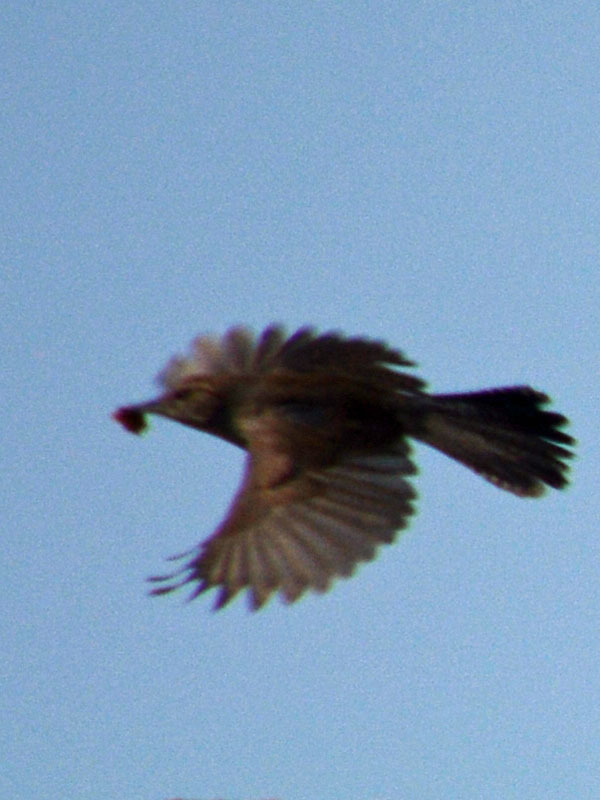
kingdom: Animalia
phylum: Chordata
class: Aves
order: Passeriformes
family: Troglodytidae
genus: Thryomanes
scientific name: Thryomanes bewickii
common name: Bewick's wren
